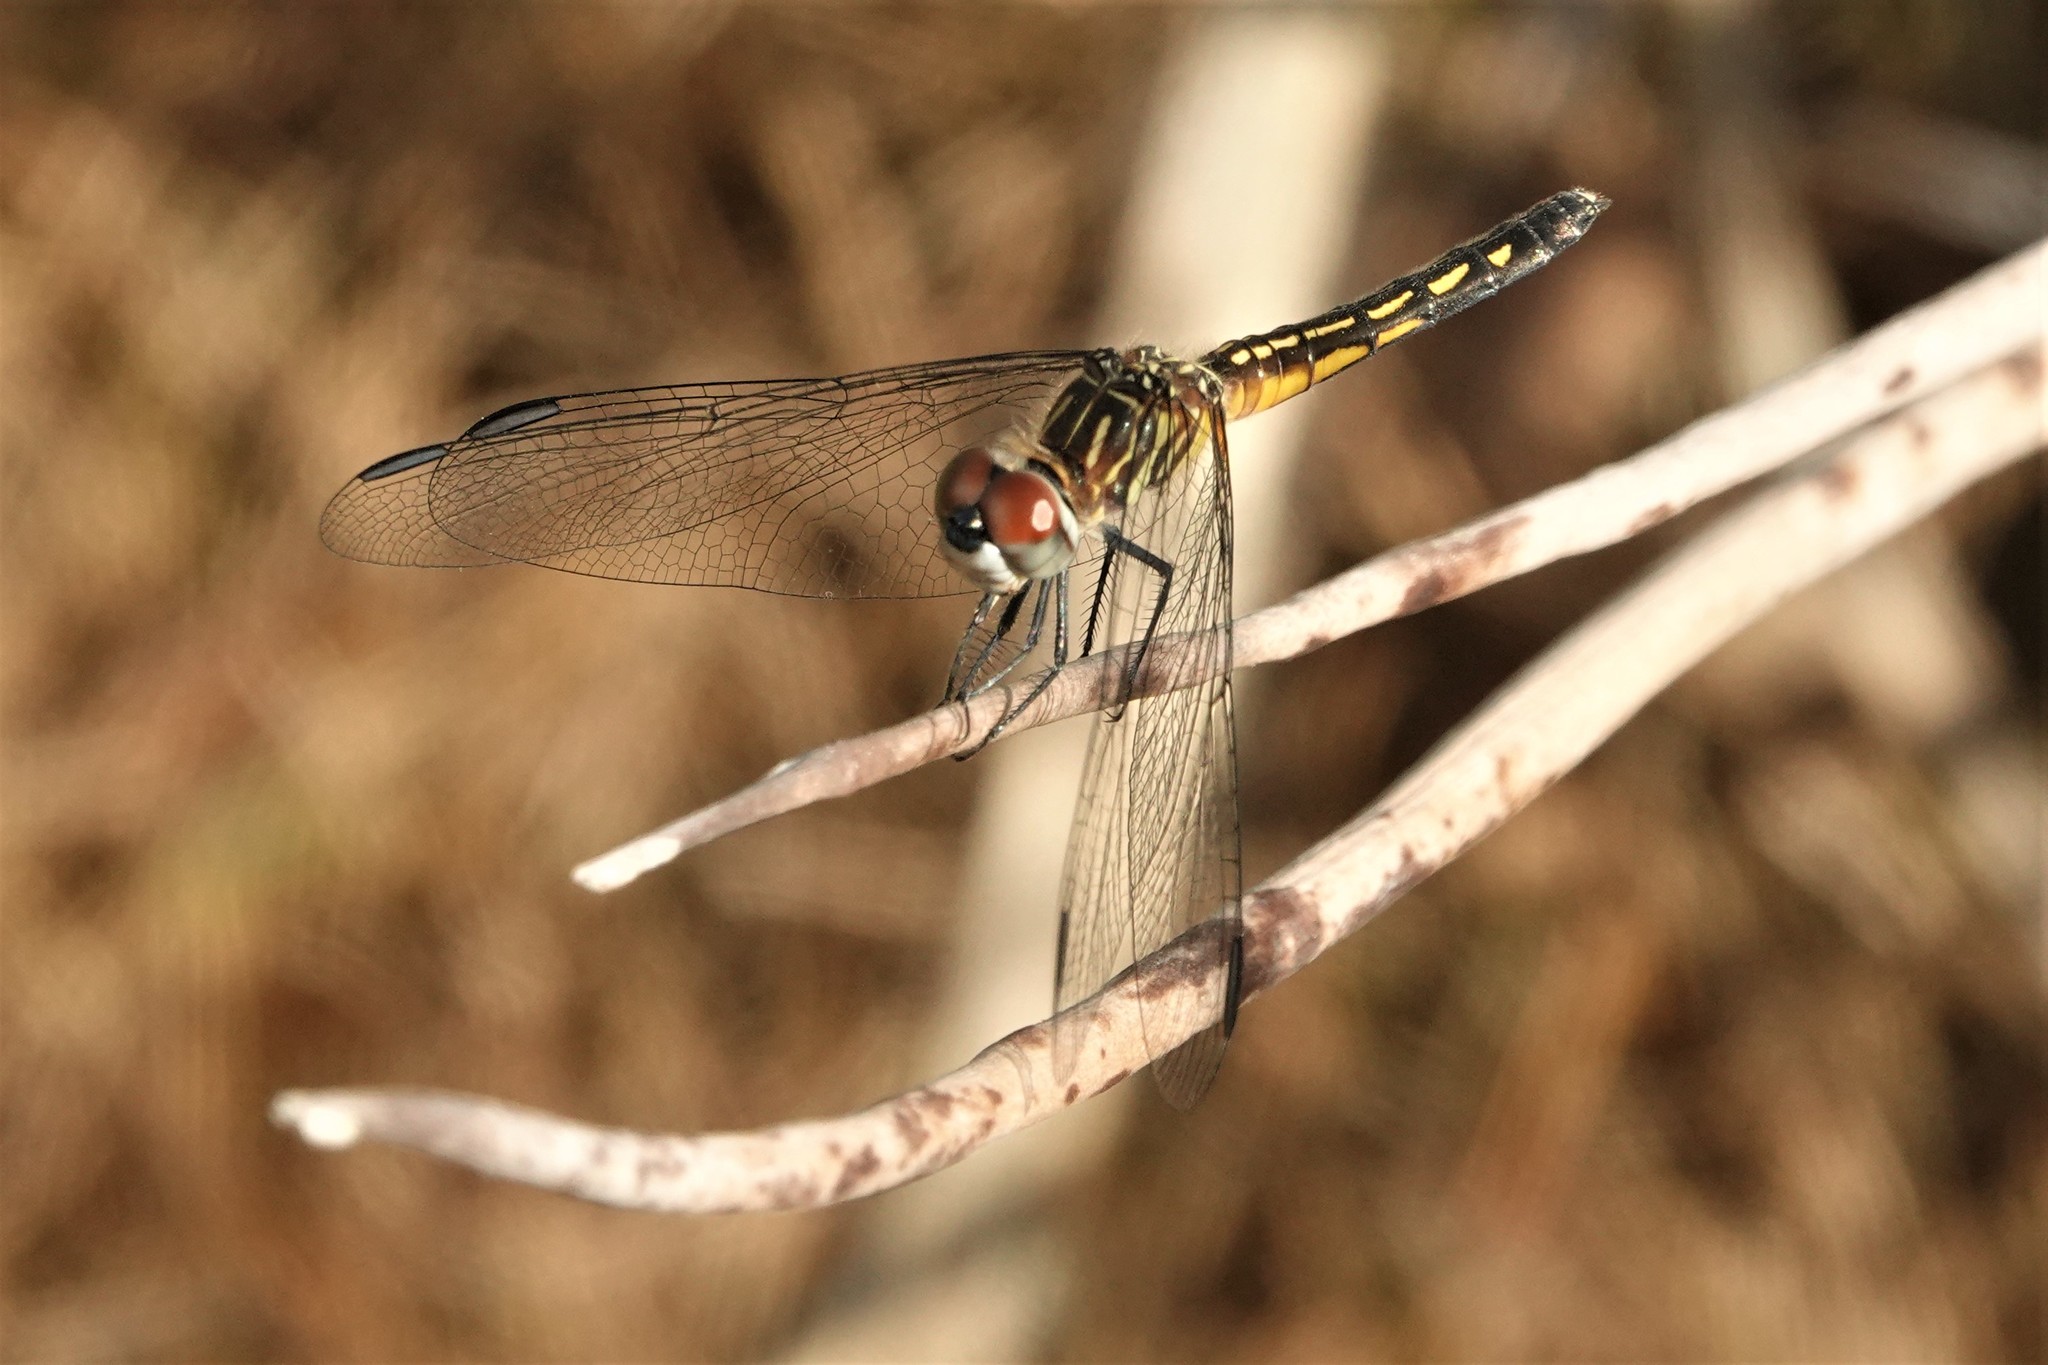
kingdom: Animalia
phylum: Arthropoda
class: Insecta
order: Odonata
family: Libellulidae
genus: Pachydiplax
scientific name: Pachydiplax longipennis
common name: Blue dasher
